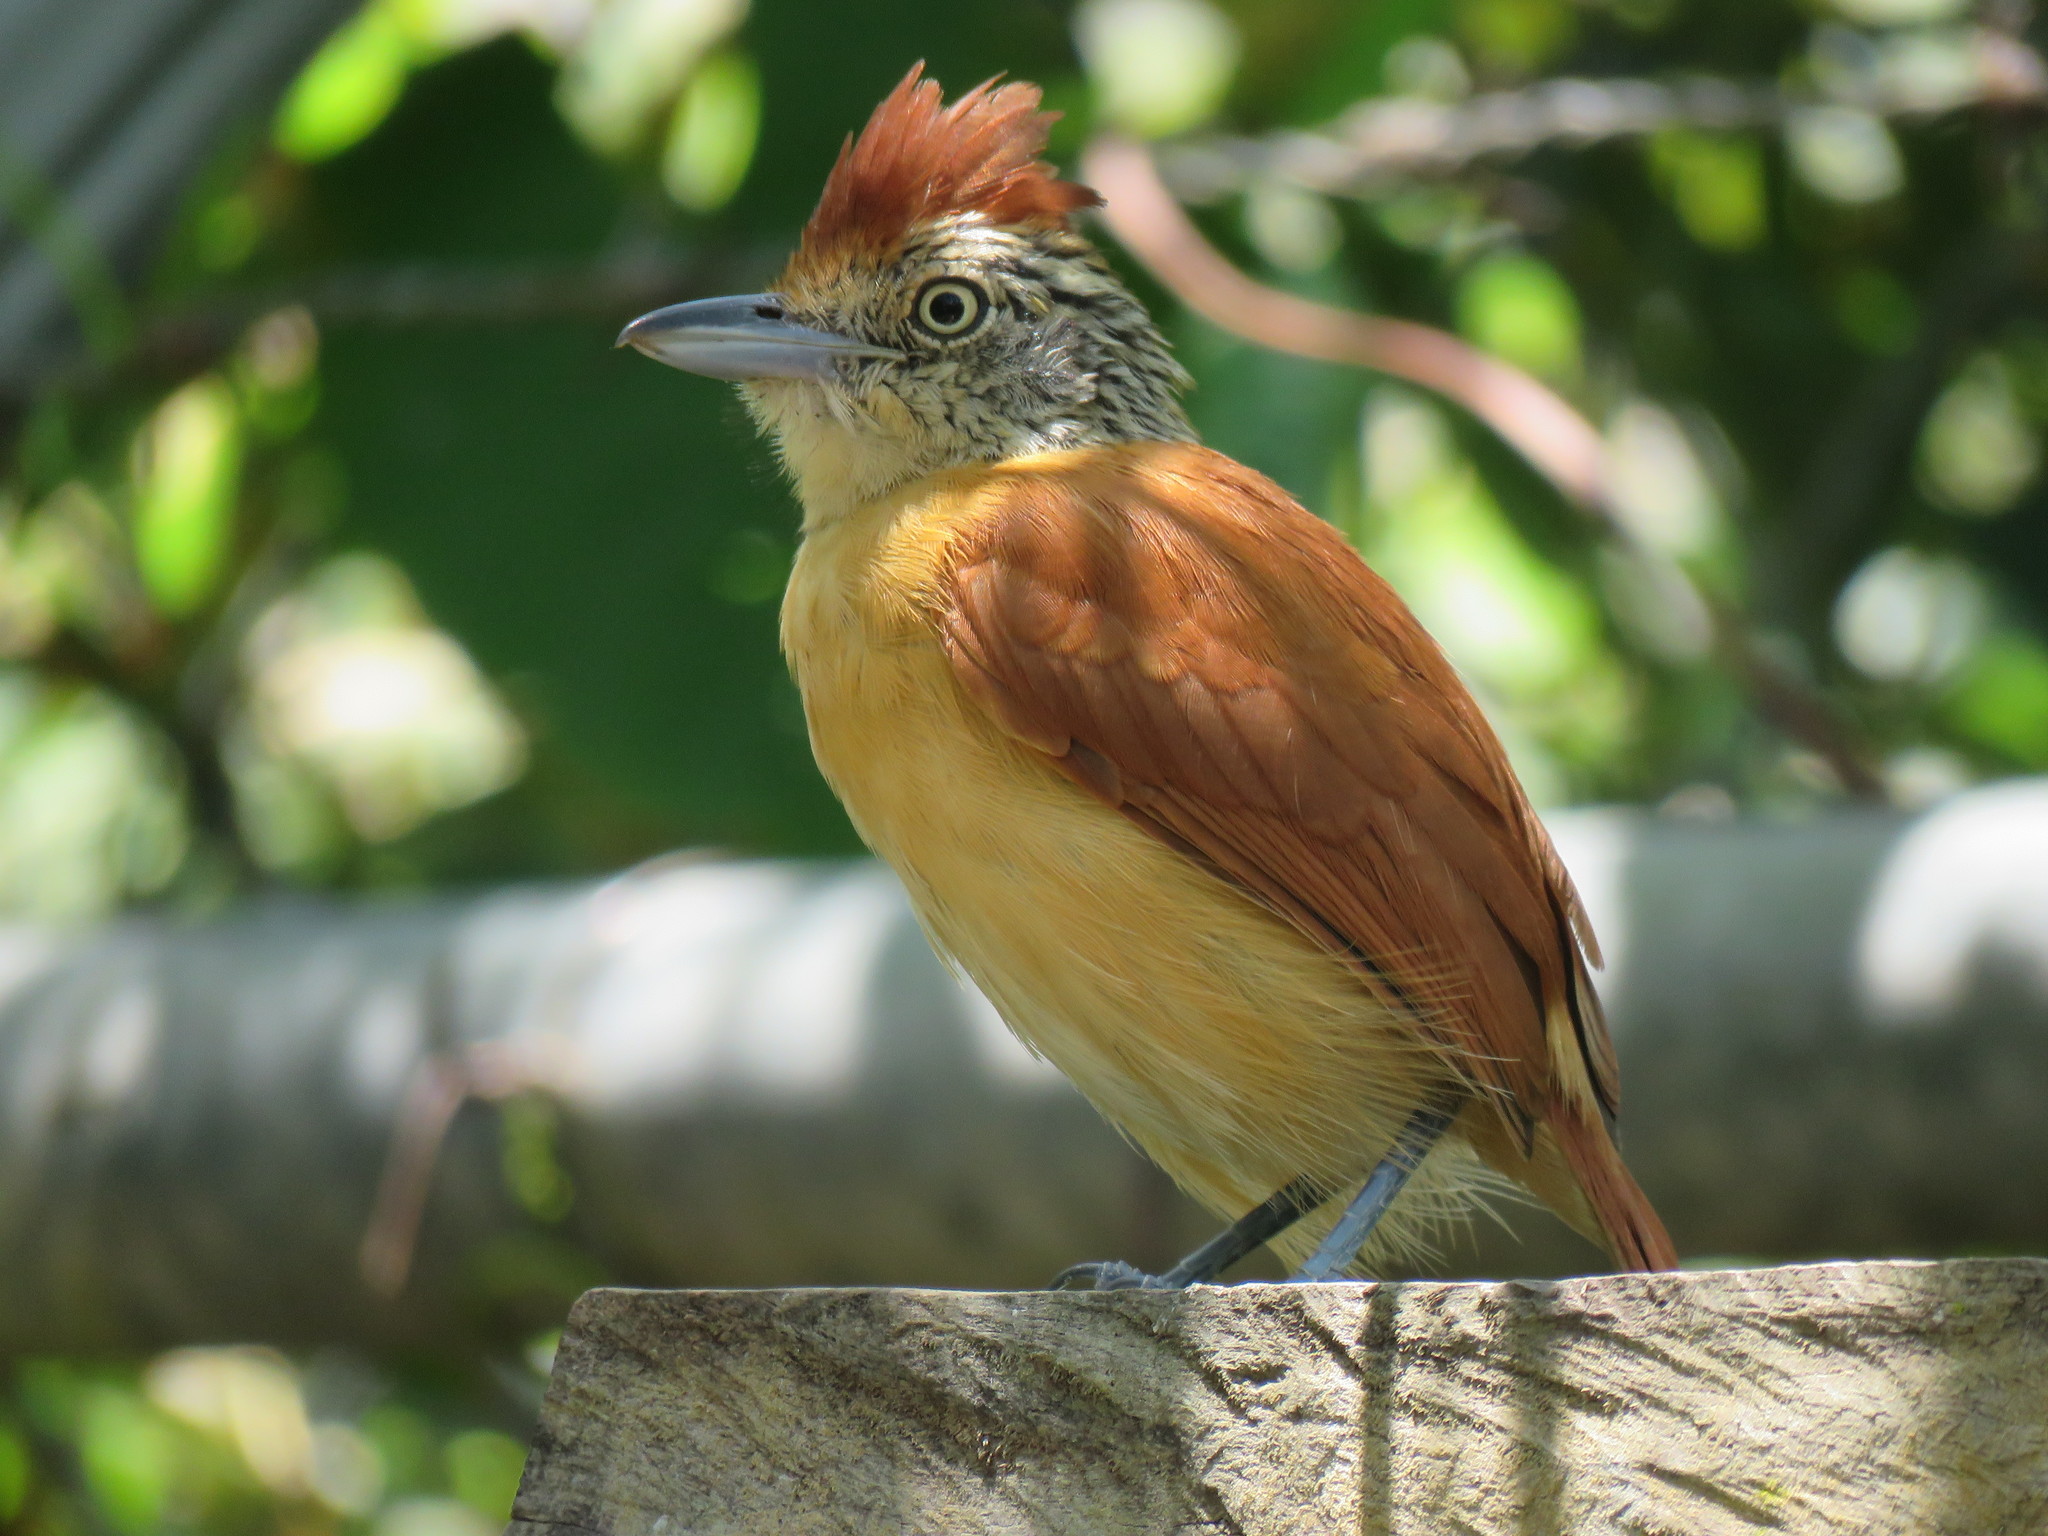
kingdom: Animalia
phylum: Chordata
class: Aves
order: Passeriformes
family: Thamnophilidae
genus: Thamnophilus
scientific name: Thamnophilus doliatus
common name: Barred antshrike
